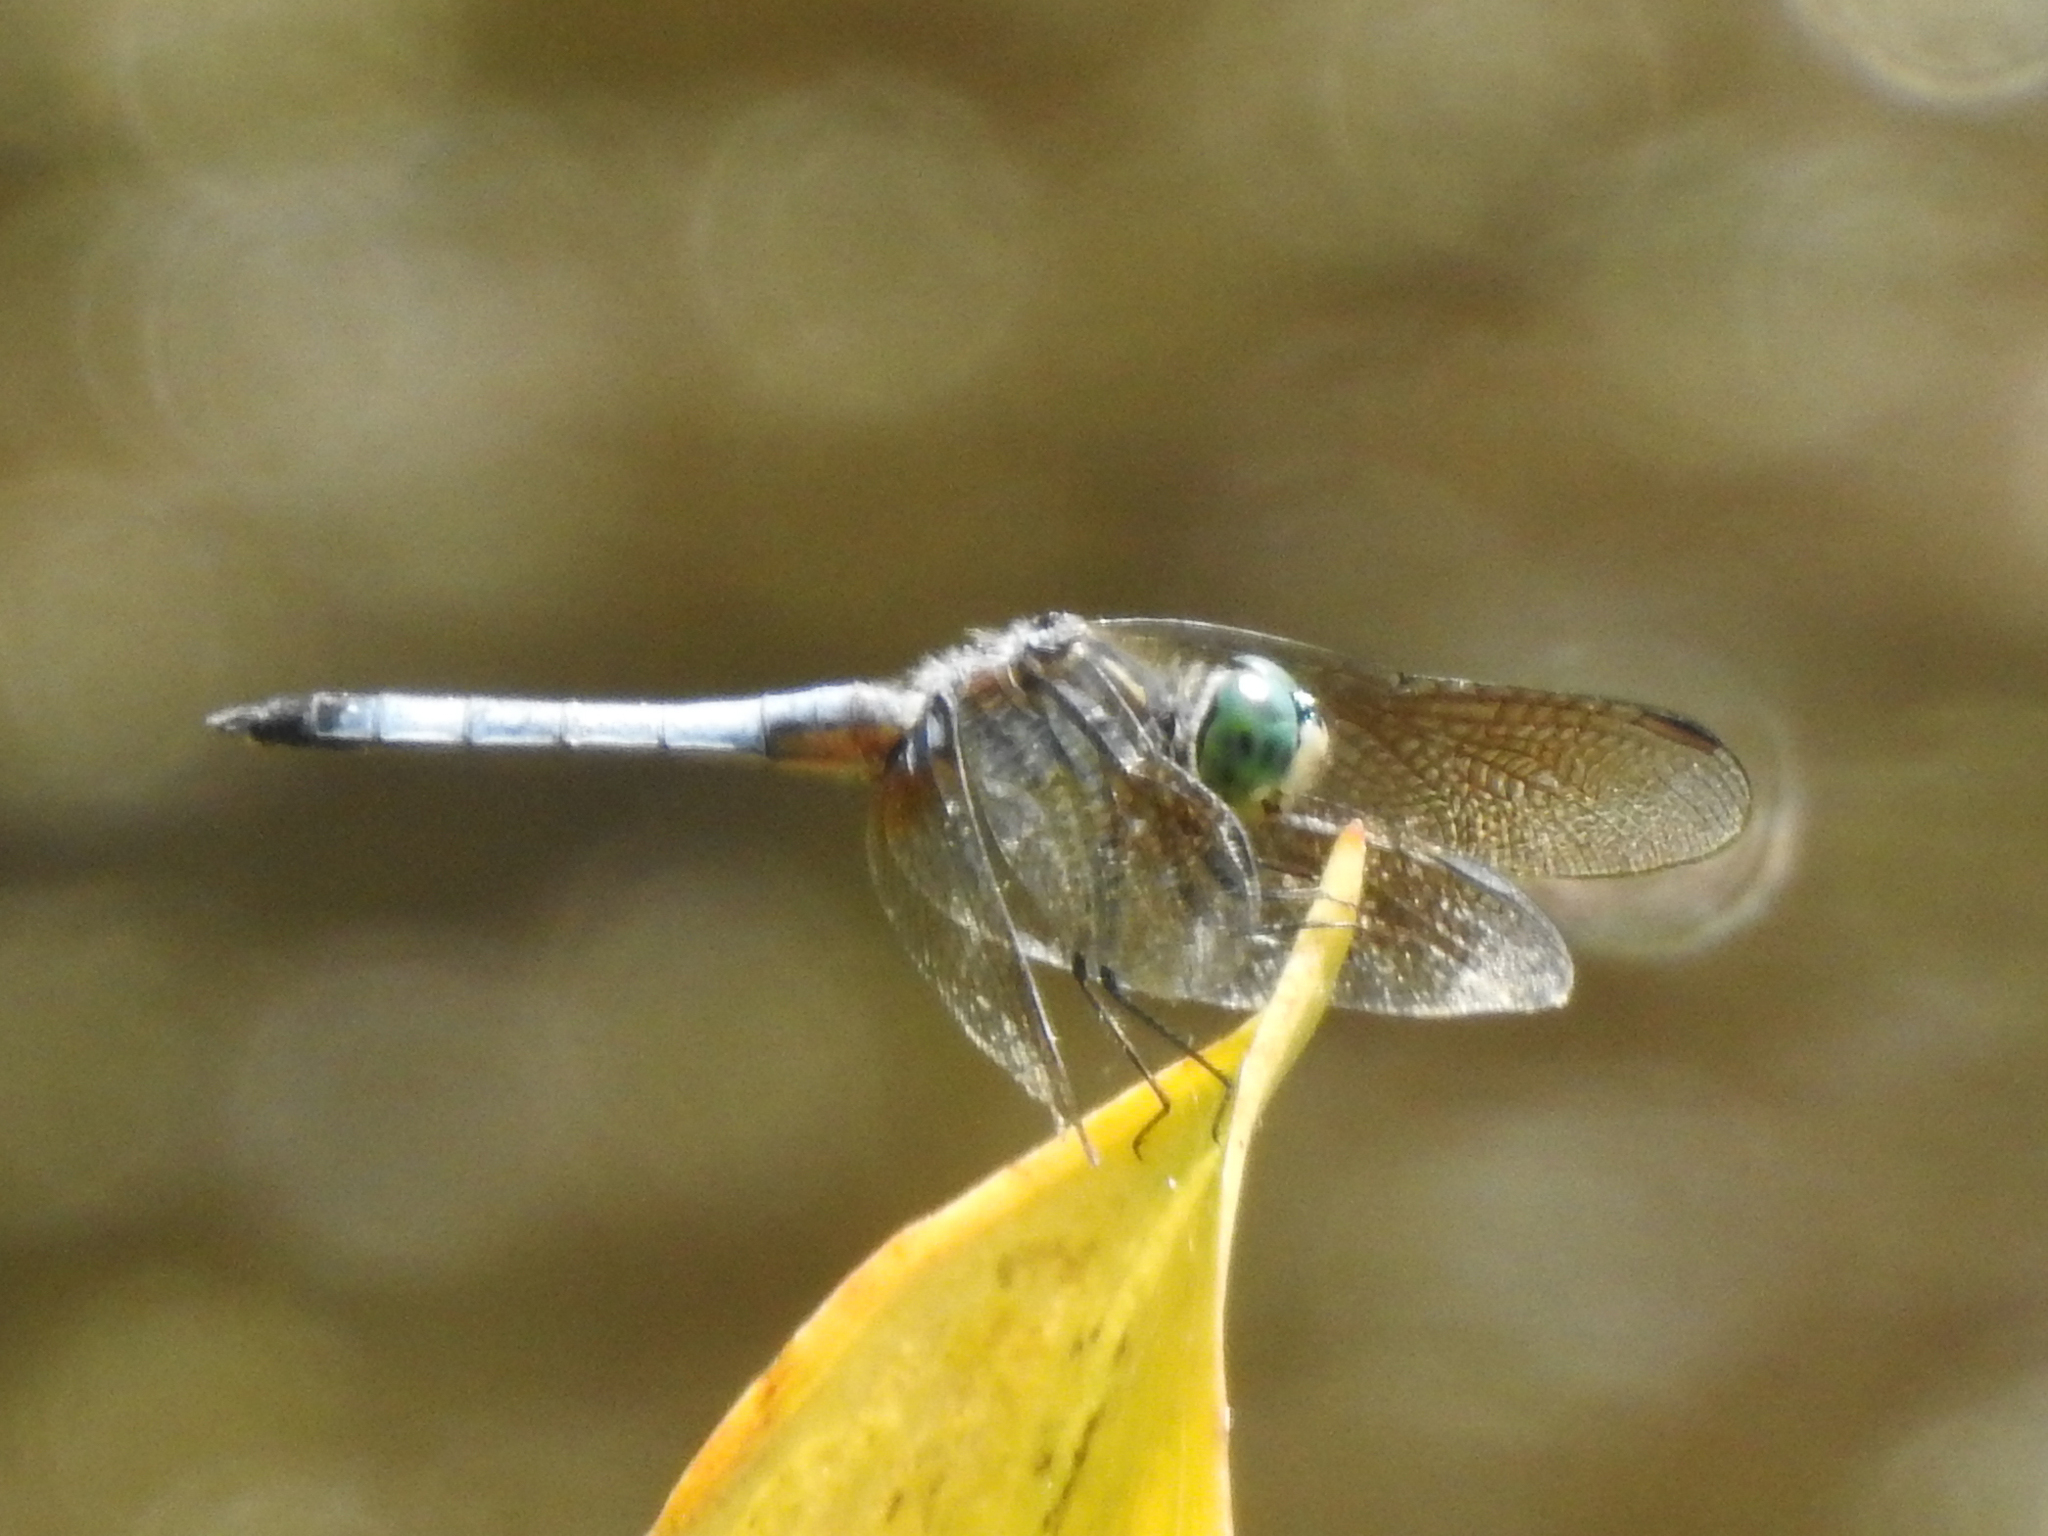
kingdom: Animalia
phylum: Arthropoda
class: Insecta
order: Odonata
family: Libellulidae
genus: Pachydiplax
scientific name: Pachydiplax longipennis
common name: Blue dasher
